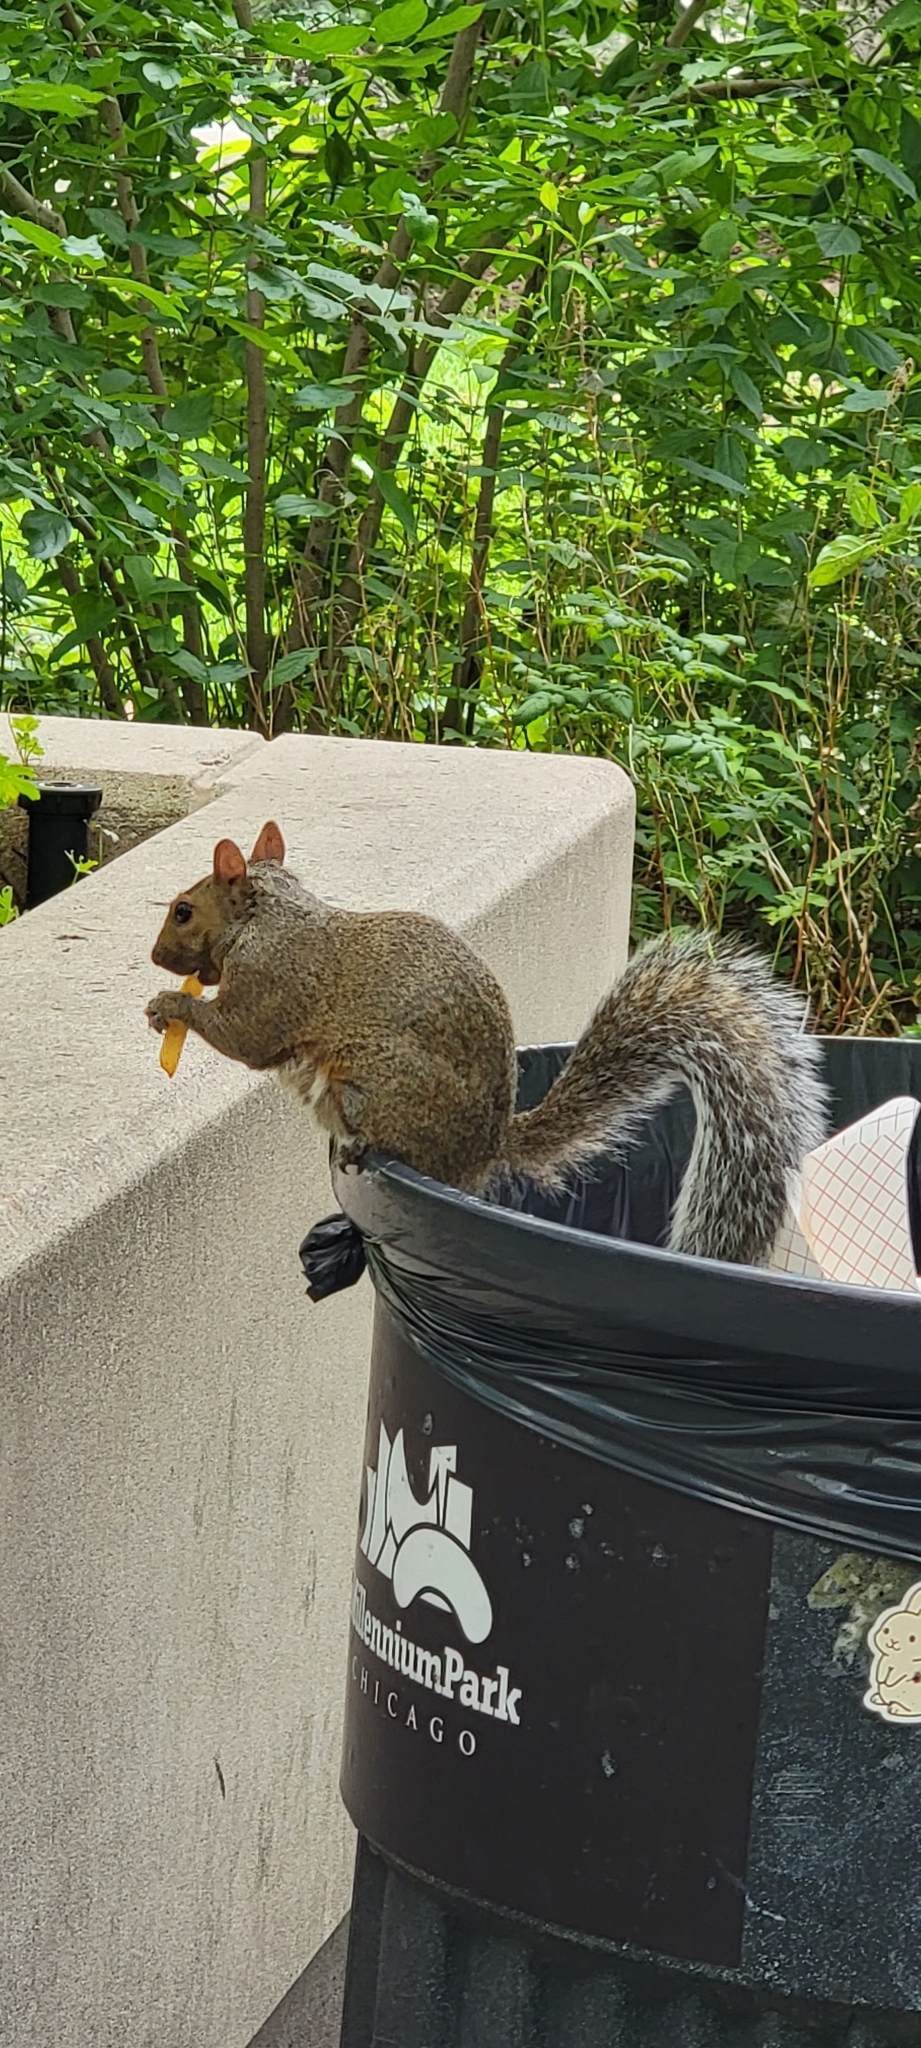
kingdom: Animalia
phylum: Chordata
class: Mammalia
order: Rodentia
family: Sciuridae
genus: Sciurus
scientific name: Sciurus carolinensis
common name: Eastern gray squirrel
